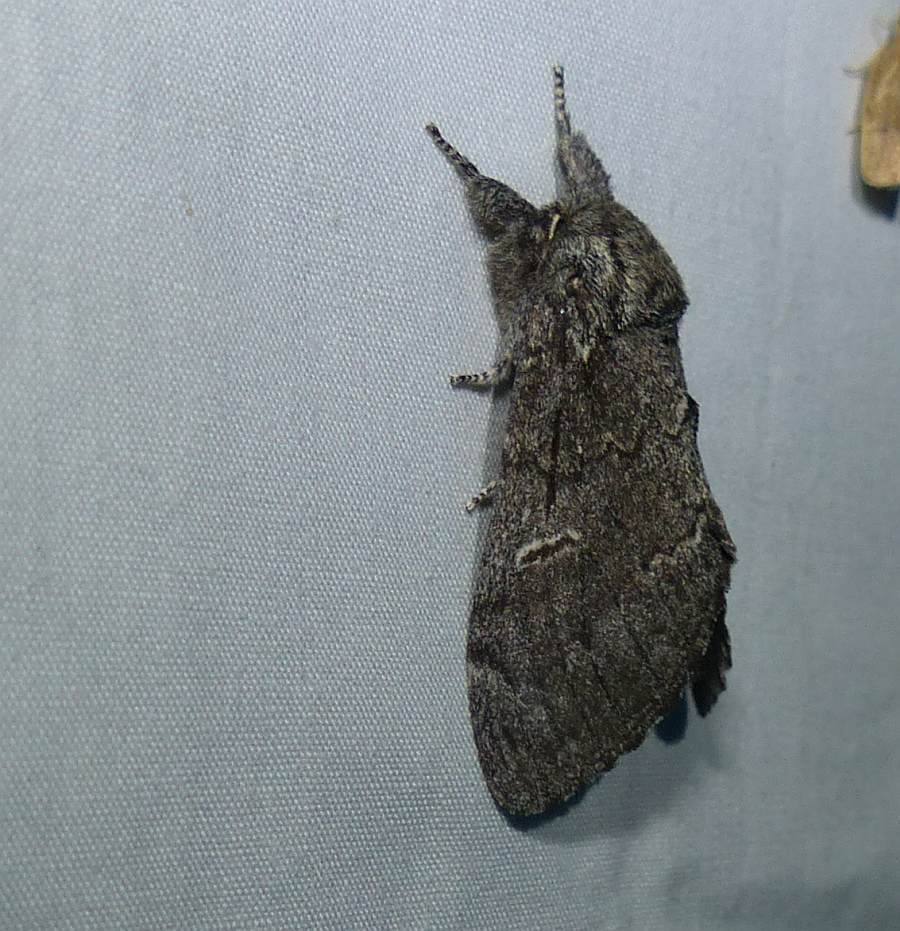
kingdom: Animalia
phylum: Arthropoda
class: Insecta
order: Lepidoptera
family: Notodontidae
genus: Notodonta
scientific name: Notodonta torva
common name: Large dark prominent
